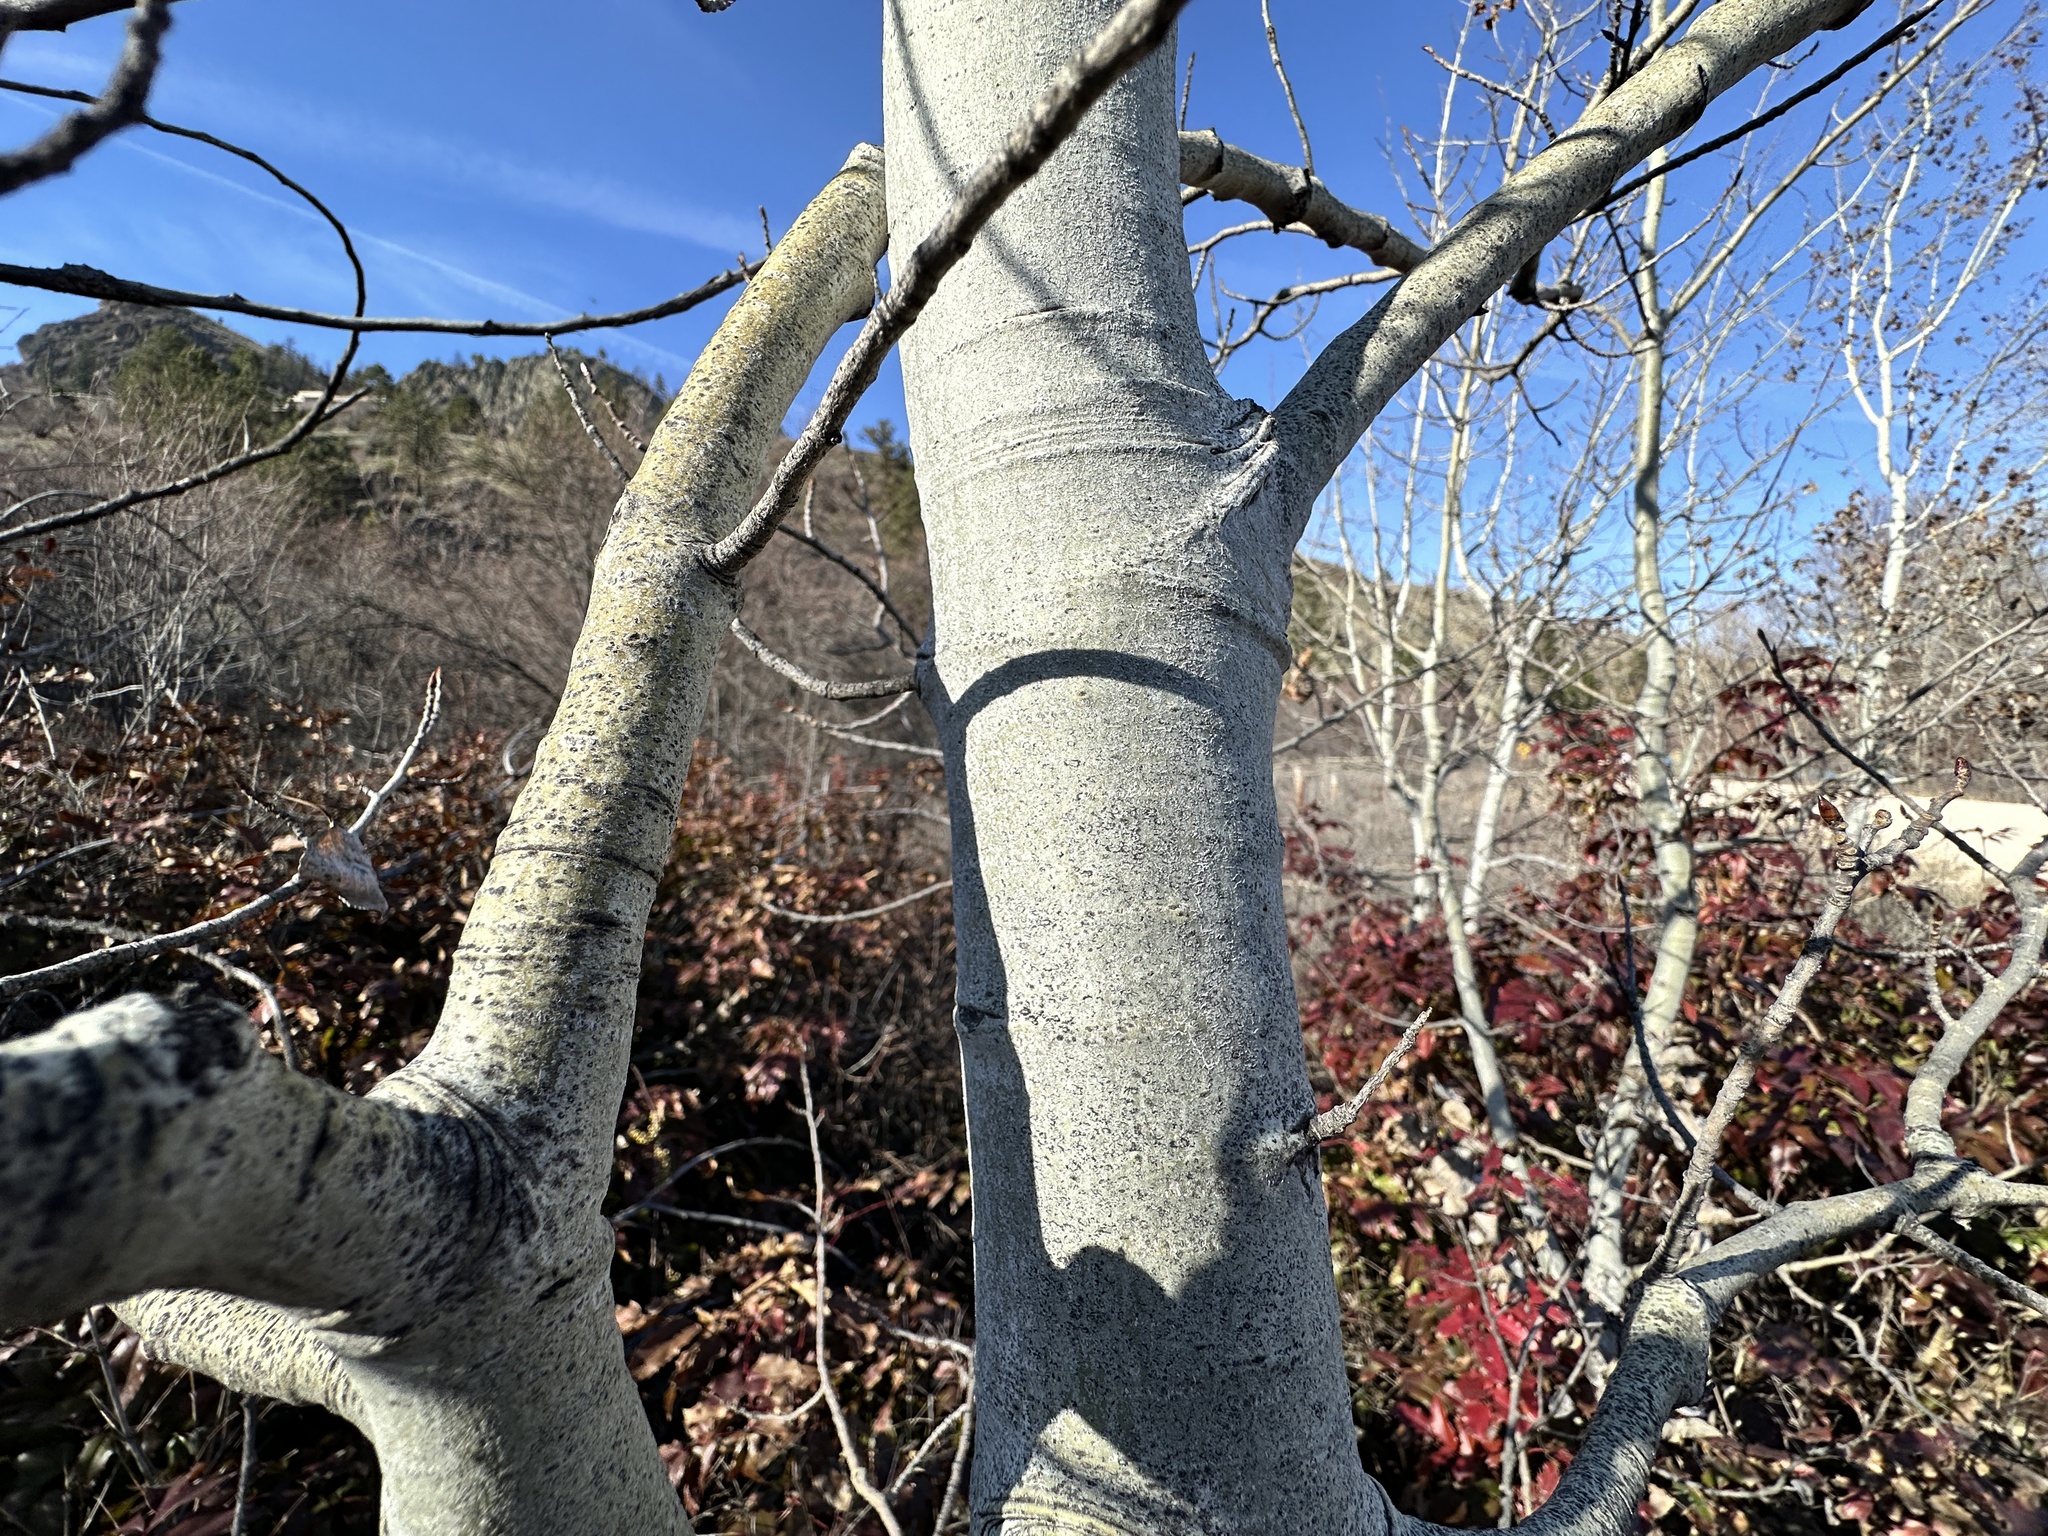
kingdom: Plantae
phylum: Tracheophyta
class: Magnoliopsida
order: Malpighiales
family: Salicaceae
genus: Populus
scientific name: Populus tremuloides
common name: Quaking aspen
